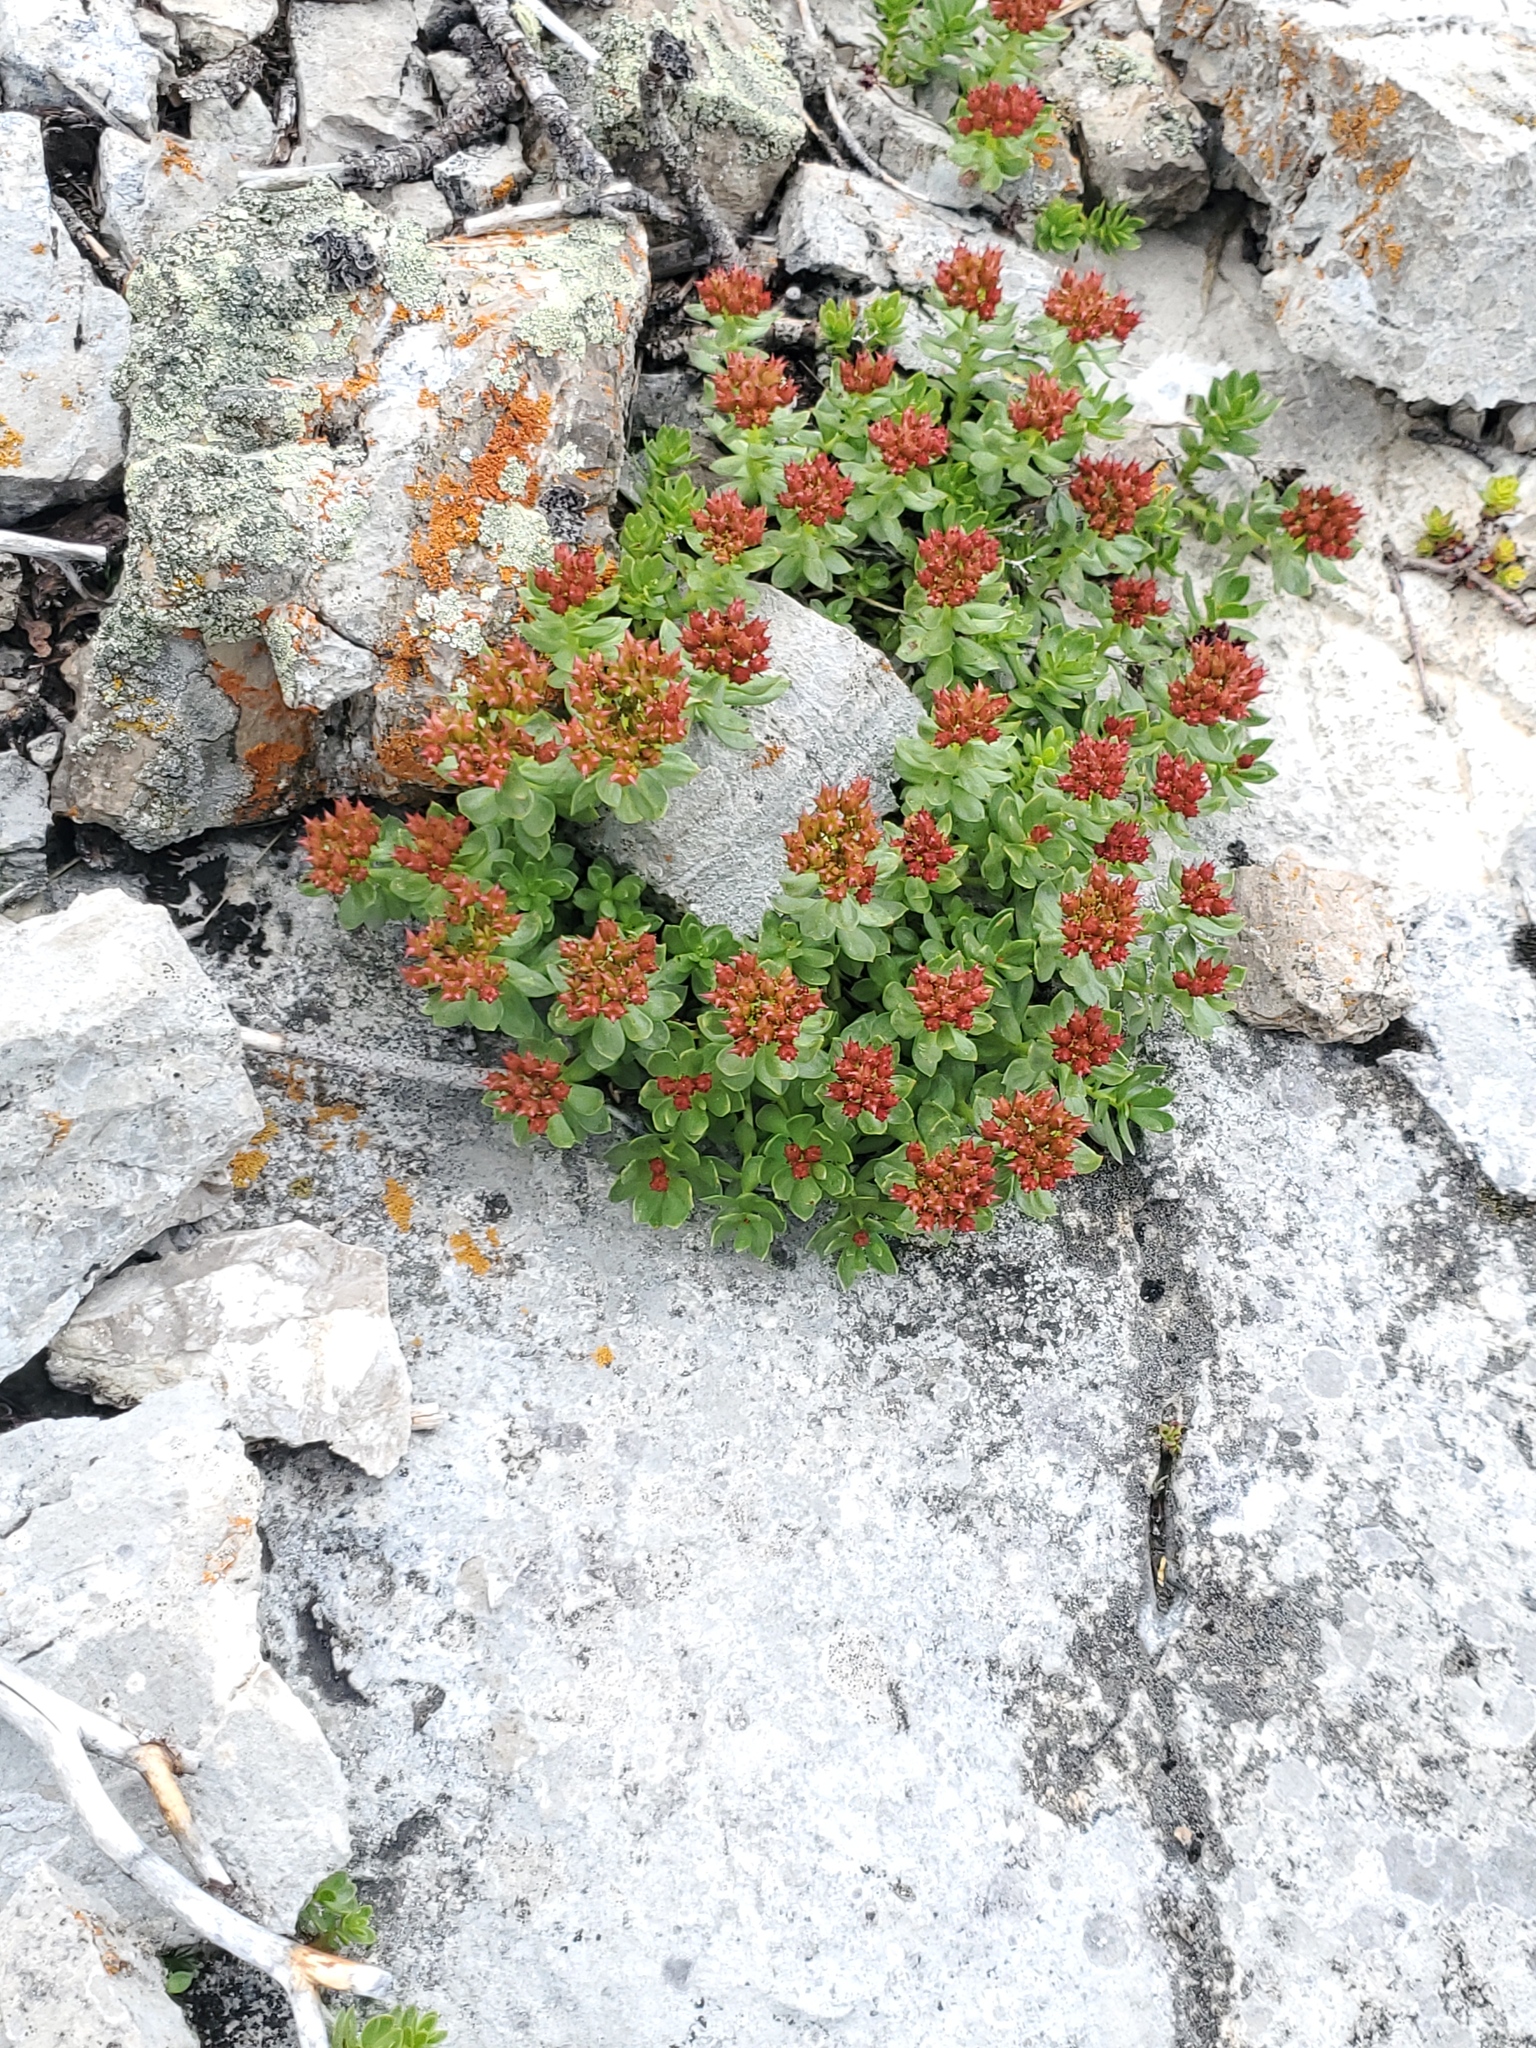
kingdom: Plantae
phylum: Tracheophyta
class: Magnoliopsida
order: Saxifragales
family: Crassulaceae
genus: Rhodiola
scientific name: Rhodiola integrifolia
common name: Western roseroot
